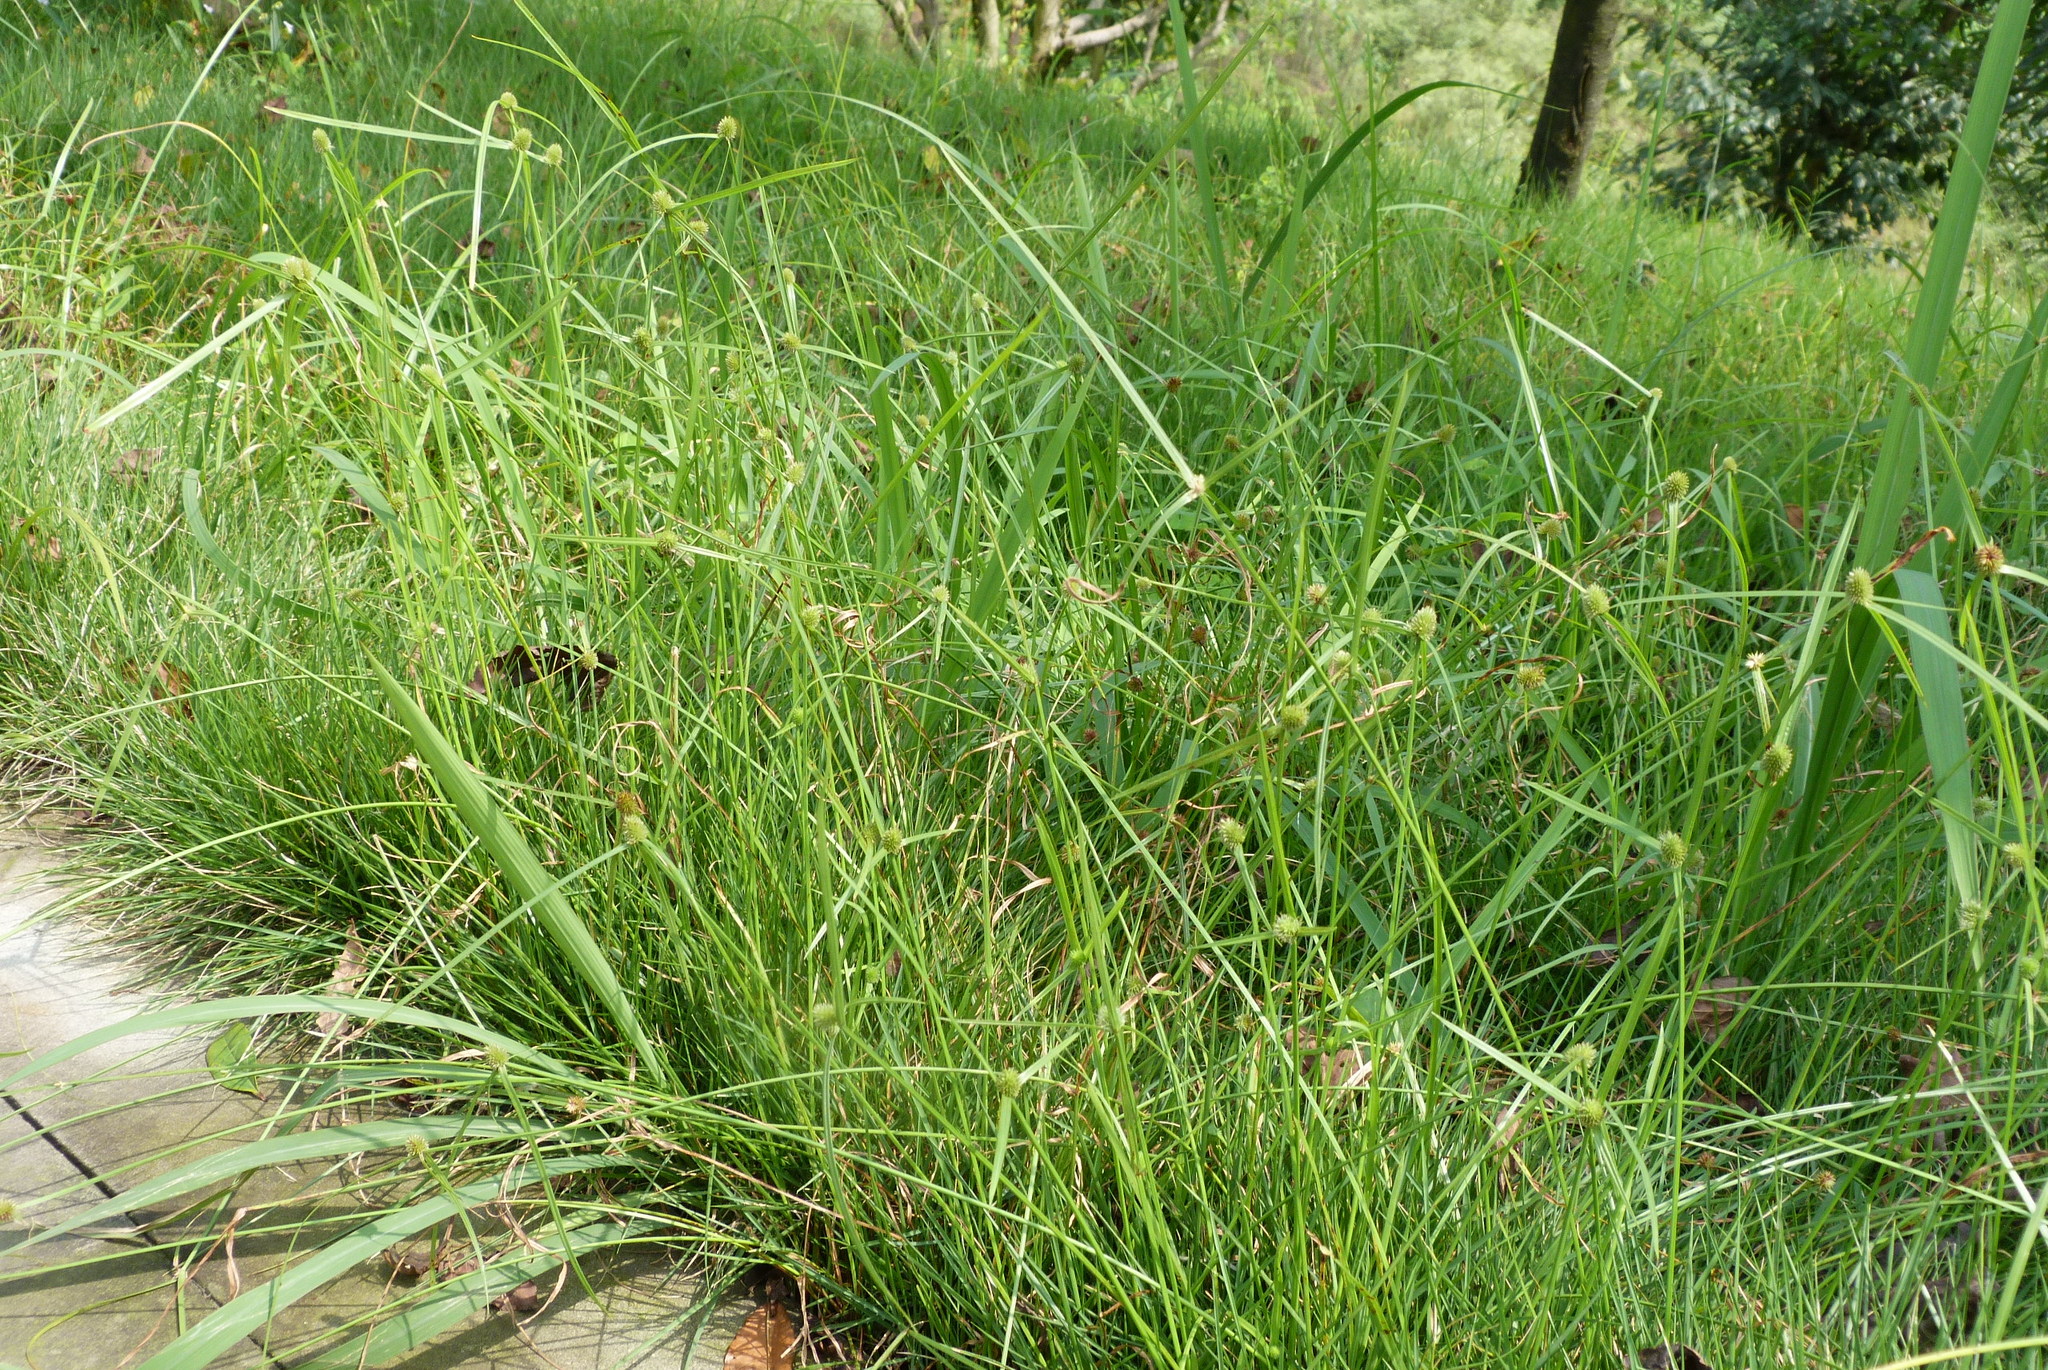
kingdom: Plantae
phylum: Tracheophyta
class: Liliopsida
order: Poales
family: Cyperaceae
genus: Cyperus
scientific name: Cyperus brevifolius
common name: Globe kyllinga
